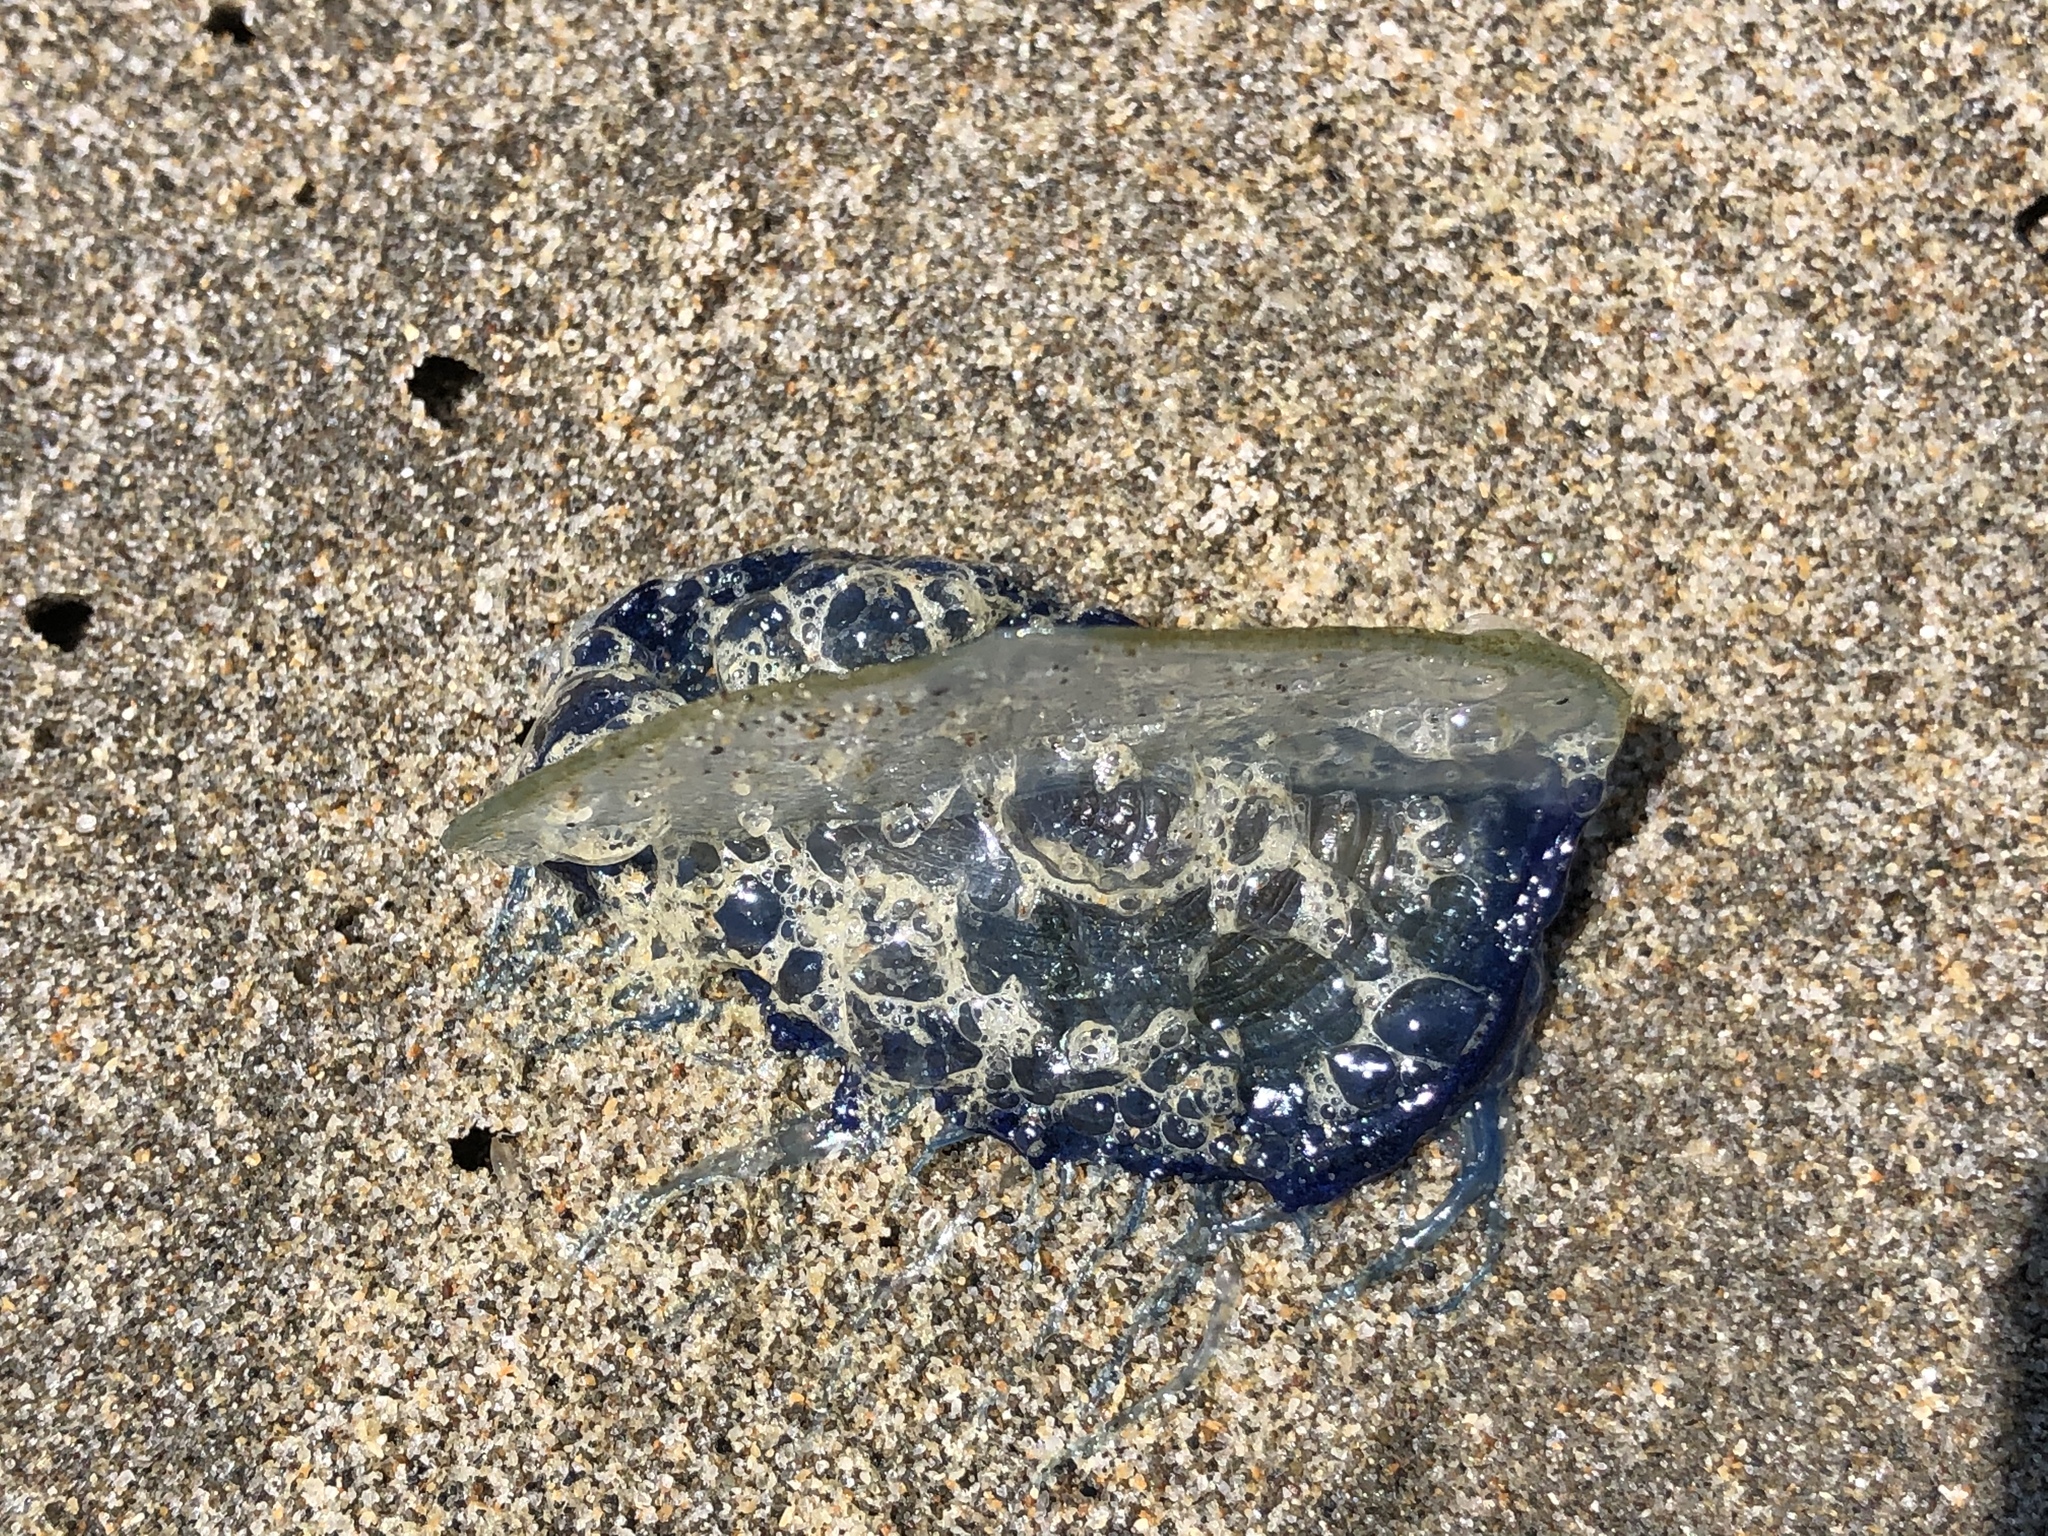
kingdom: Animalia
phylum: Cnidaria
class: Hydrozoa
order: Anthoathecata
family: Porpitidae
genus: Velella
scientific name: Velella velella
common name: By-the-wind-sailor
